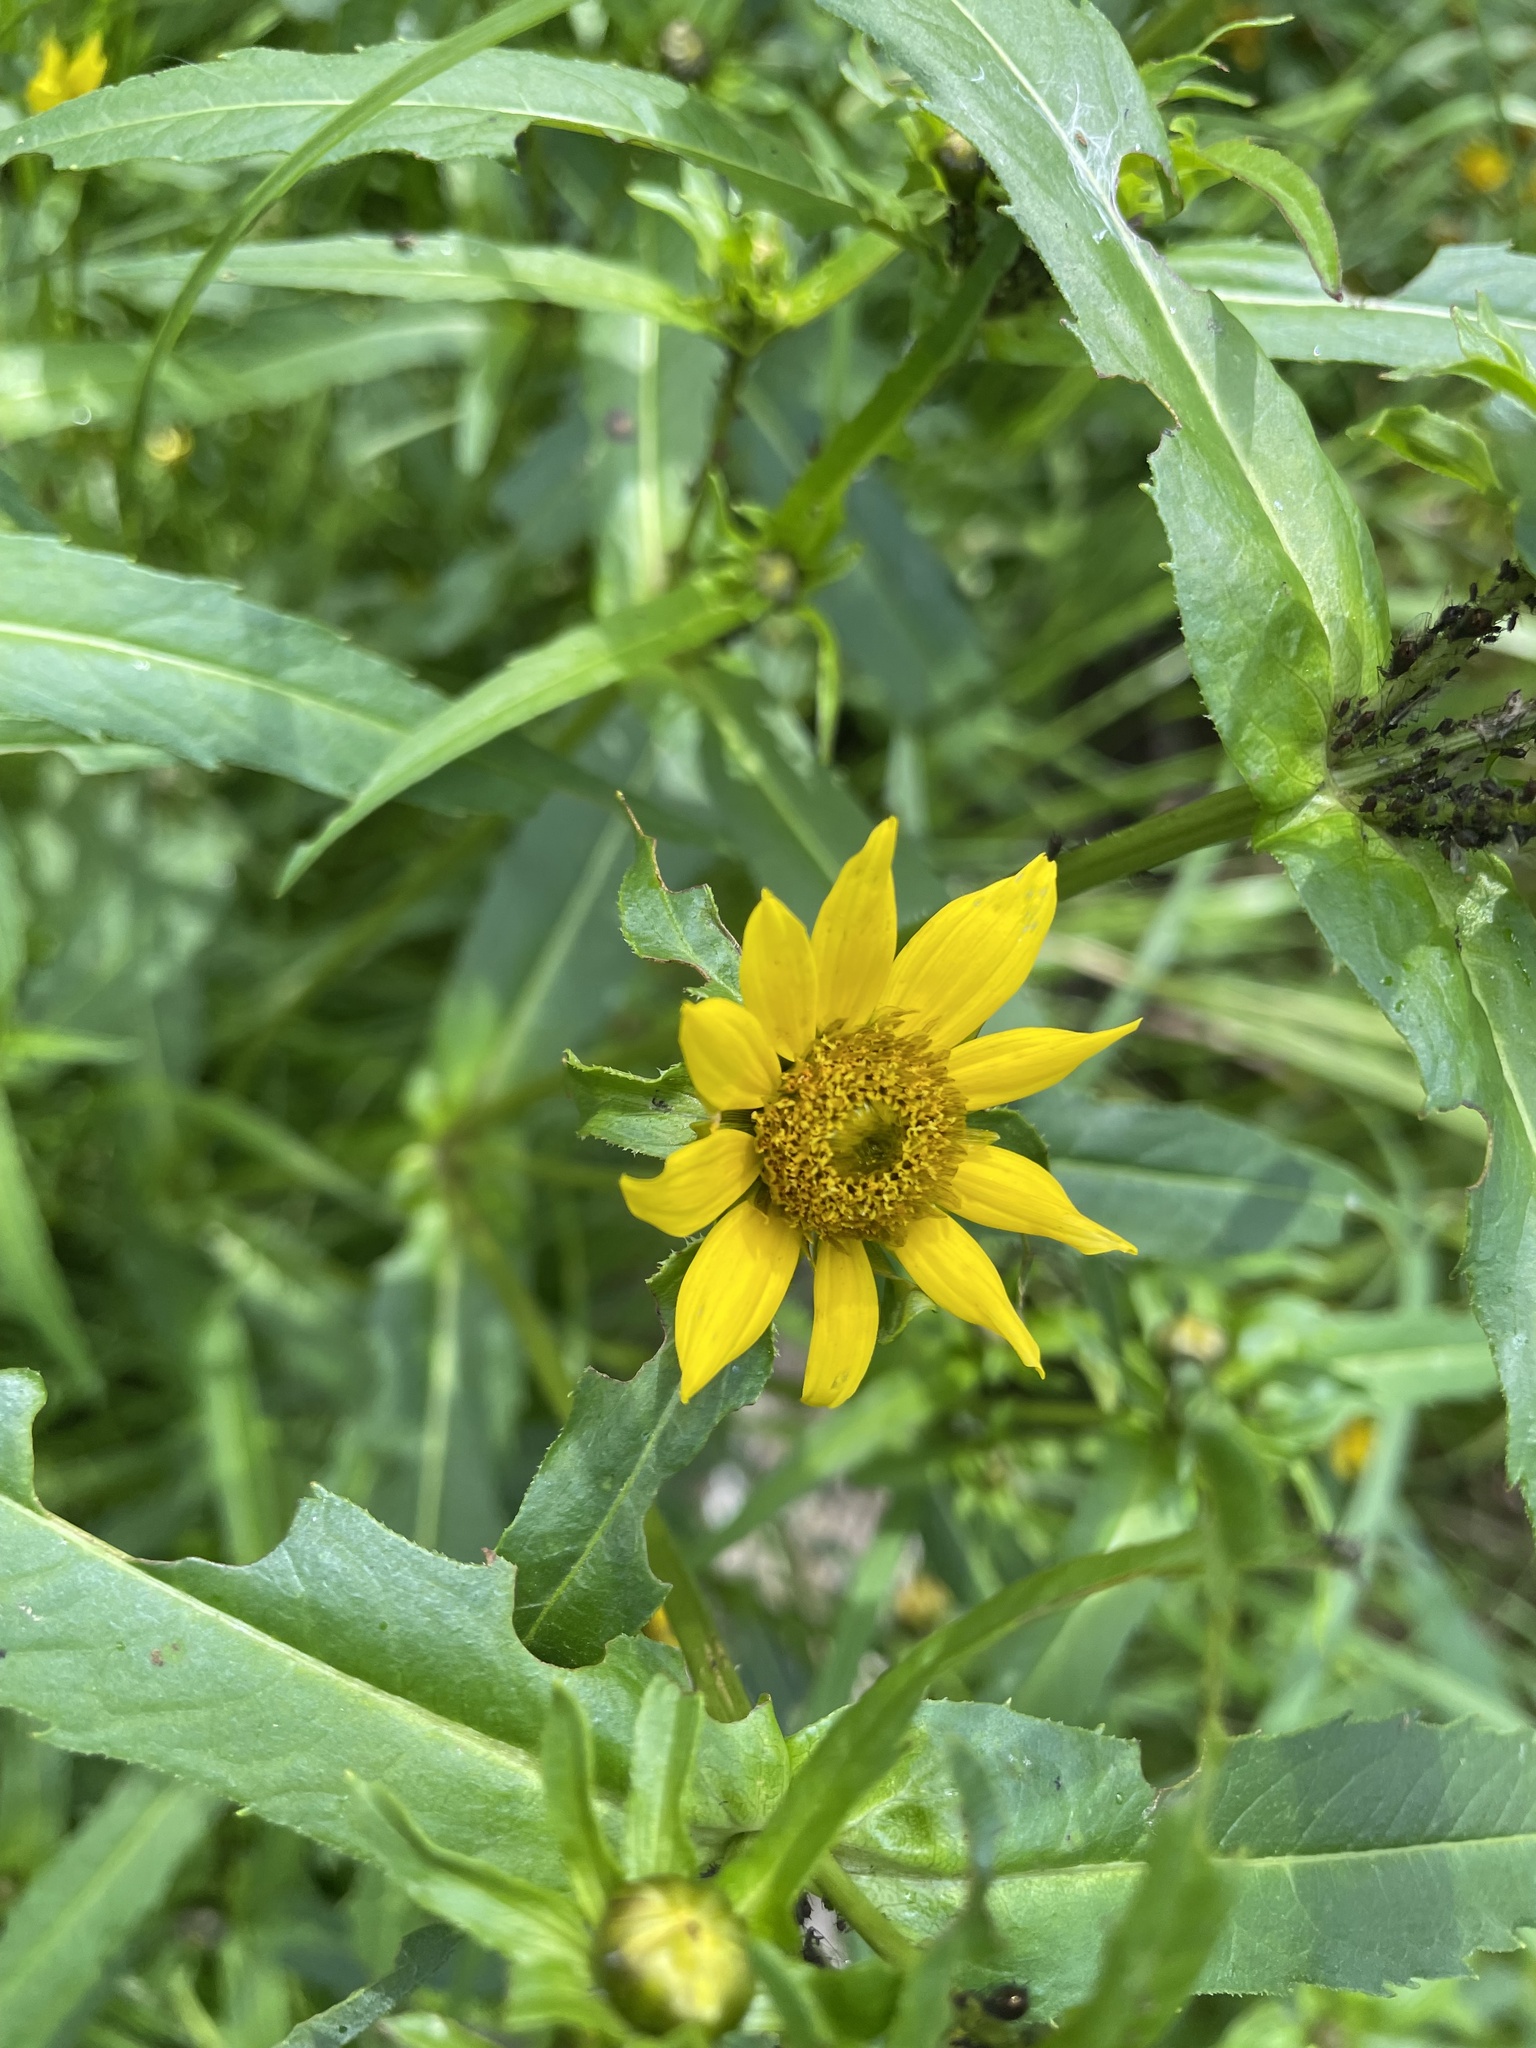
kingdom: Plantae
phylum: Tracheophyta
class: Magnoliopsida
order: Asterales
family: Asteraceae
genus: Bidens
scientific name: Bidens cernua
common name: Nodding bur-marigold
